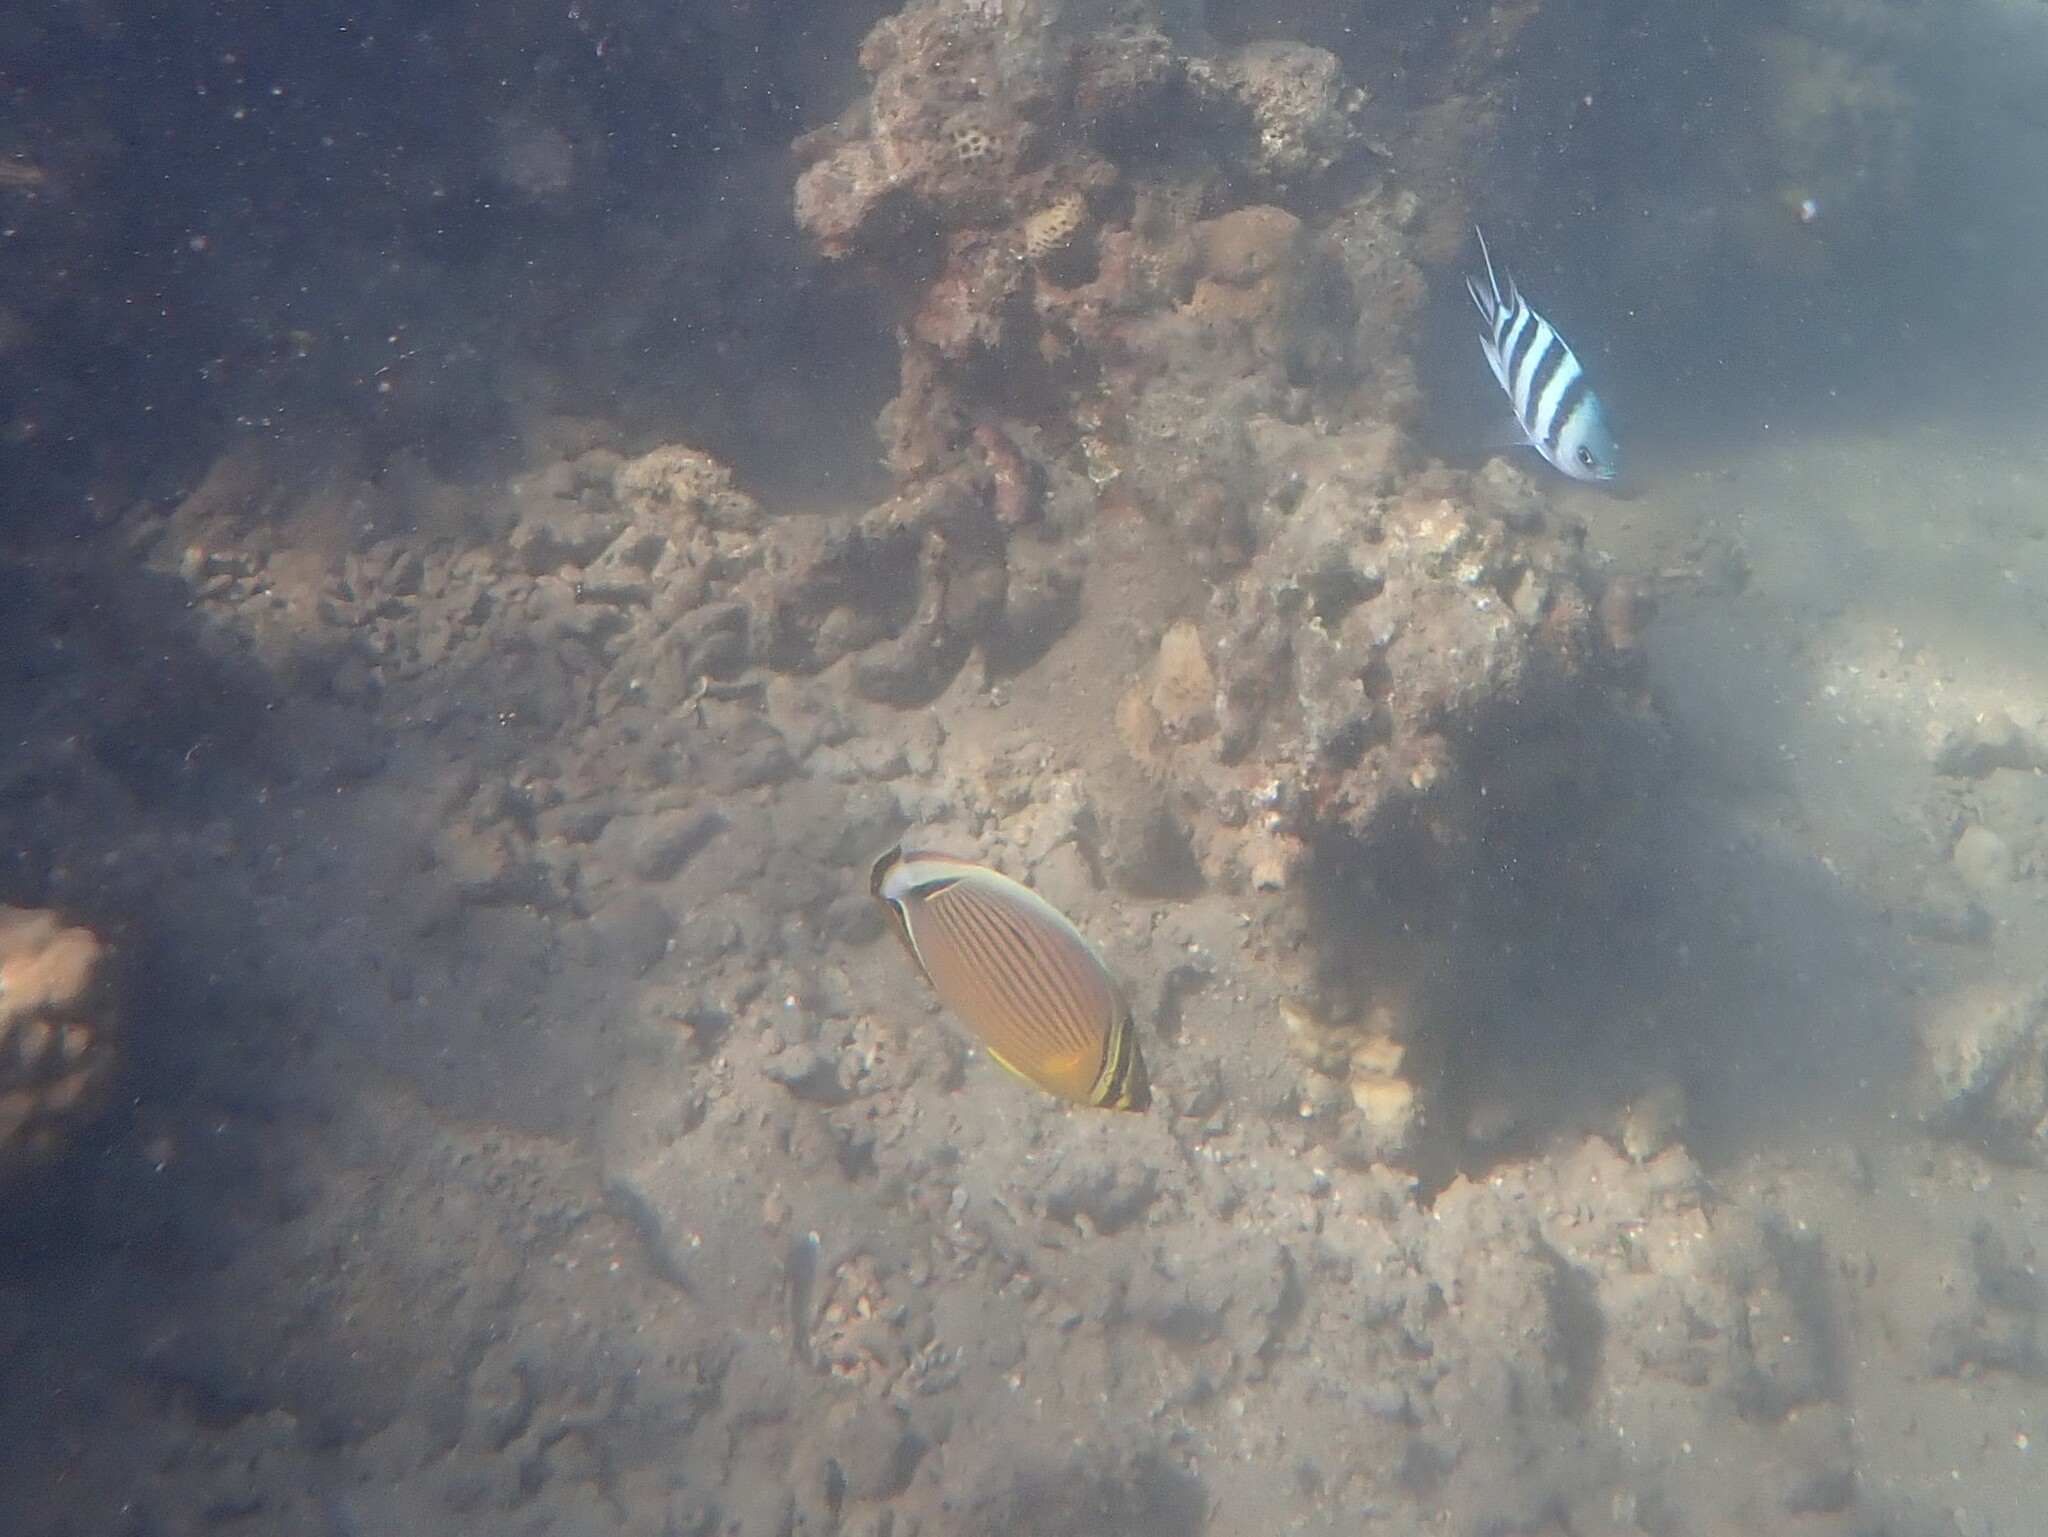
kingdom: Animalia
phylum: Chordata
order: Perciformes
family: Chaetodontidae
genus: Chaetodon
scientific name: Chaetodon lunulatus
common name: Redfin butterflyfish
